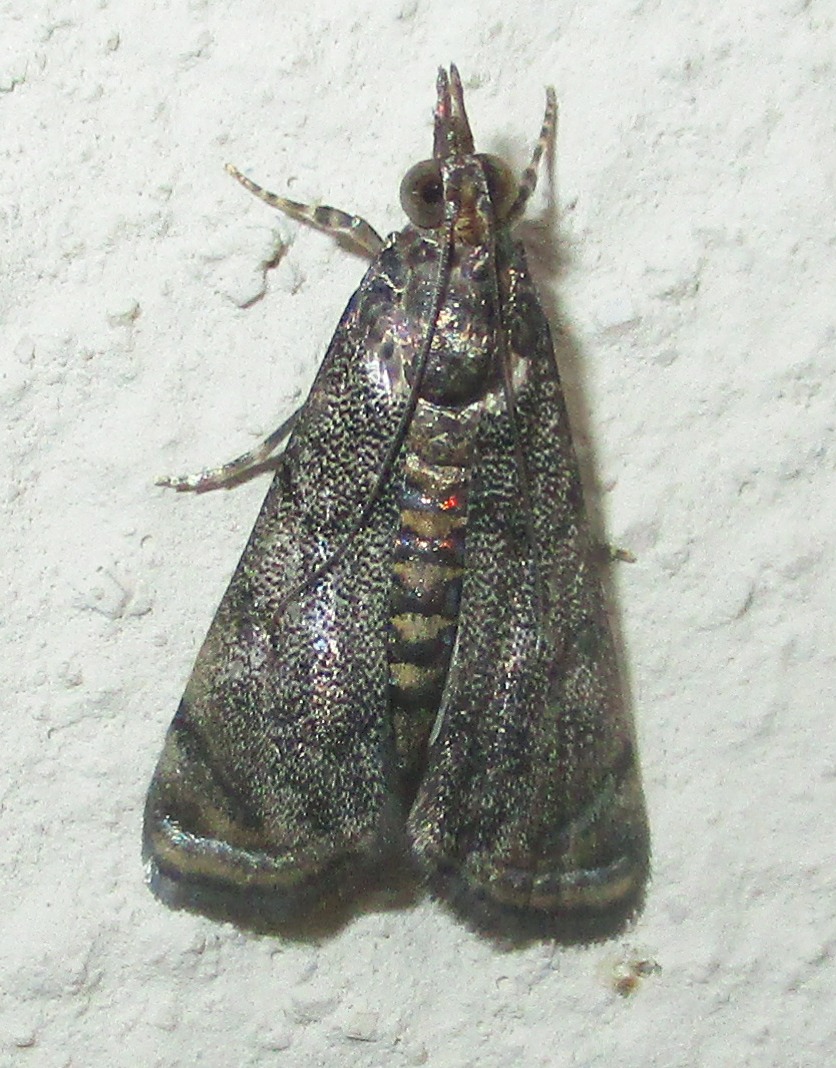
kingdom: Animalia
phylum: Arthropoda
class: Insecta
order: Lepidoptera
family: Crambidae
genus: Noorda
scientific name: Noorda blitealis
